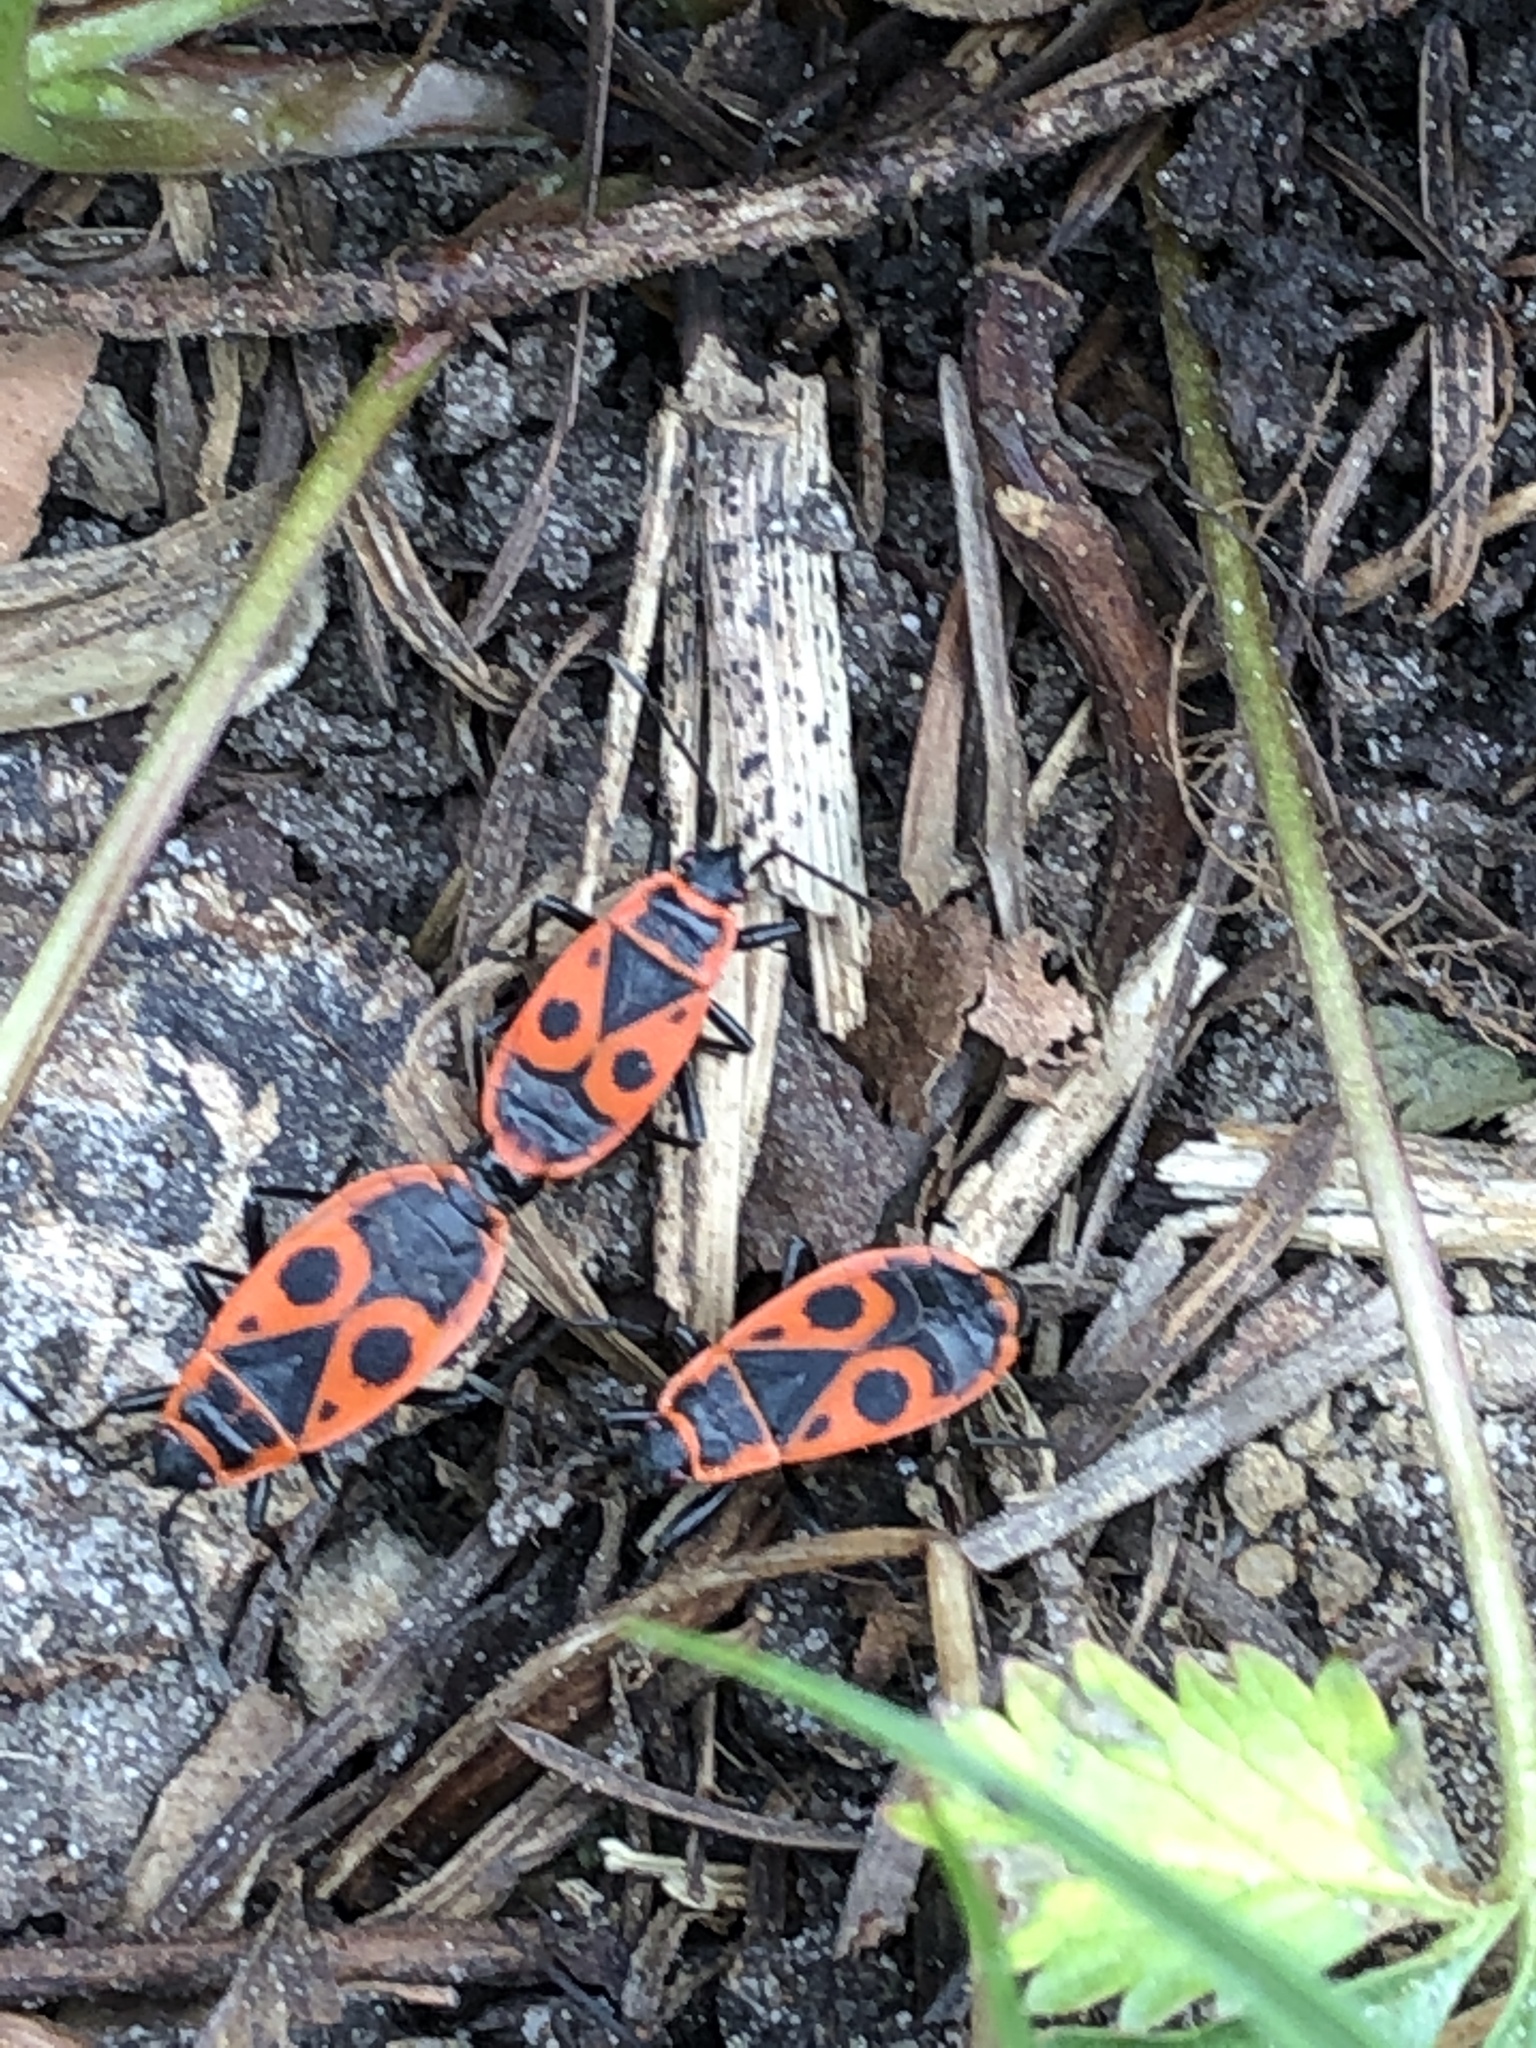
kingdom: Animalia
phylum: Arthropoda
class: Insecta
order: Hemiptera
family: Pyrrhocoridae
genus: Pyrrhocoris
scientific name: Pyrrhocoris apterus
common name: Firebug
